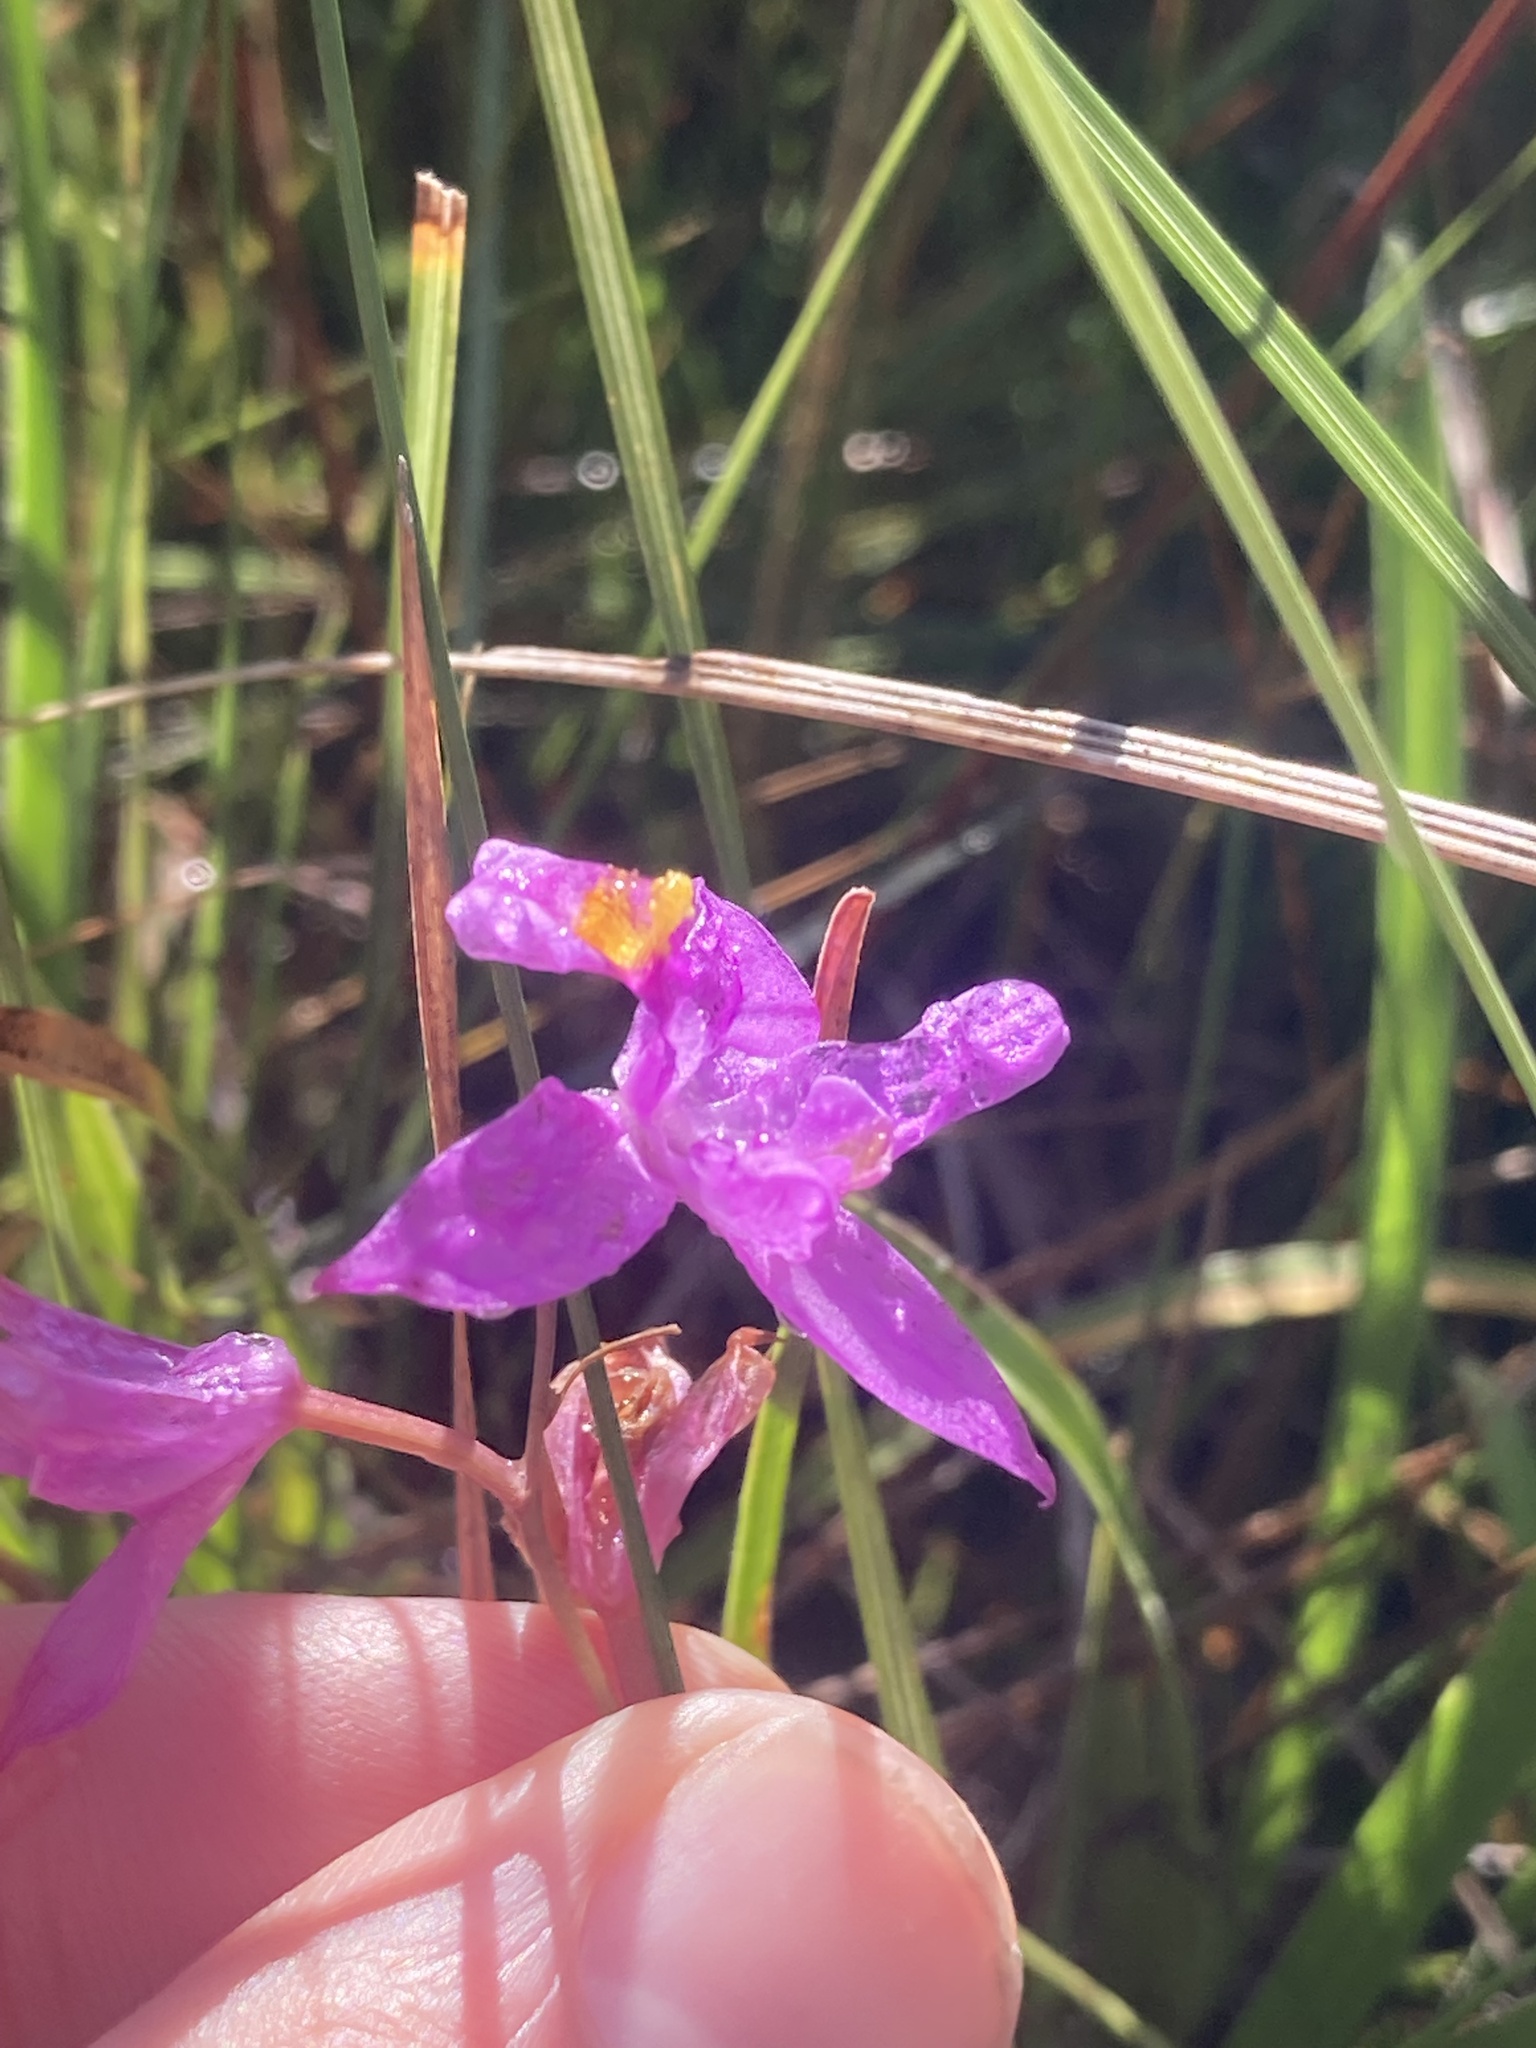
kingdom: Plantae
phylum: Tracheophyta
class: Liliopsida
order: Asparagales
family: Orchidaceae
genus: Calopogon
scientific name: Calopogon barbatus
